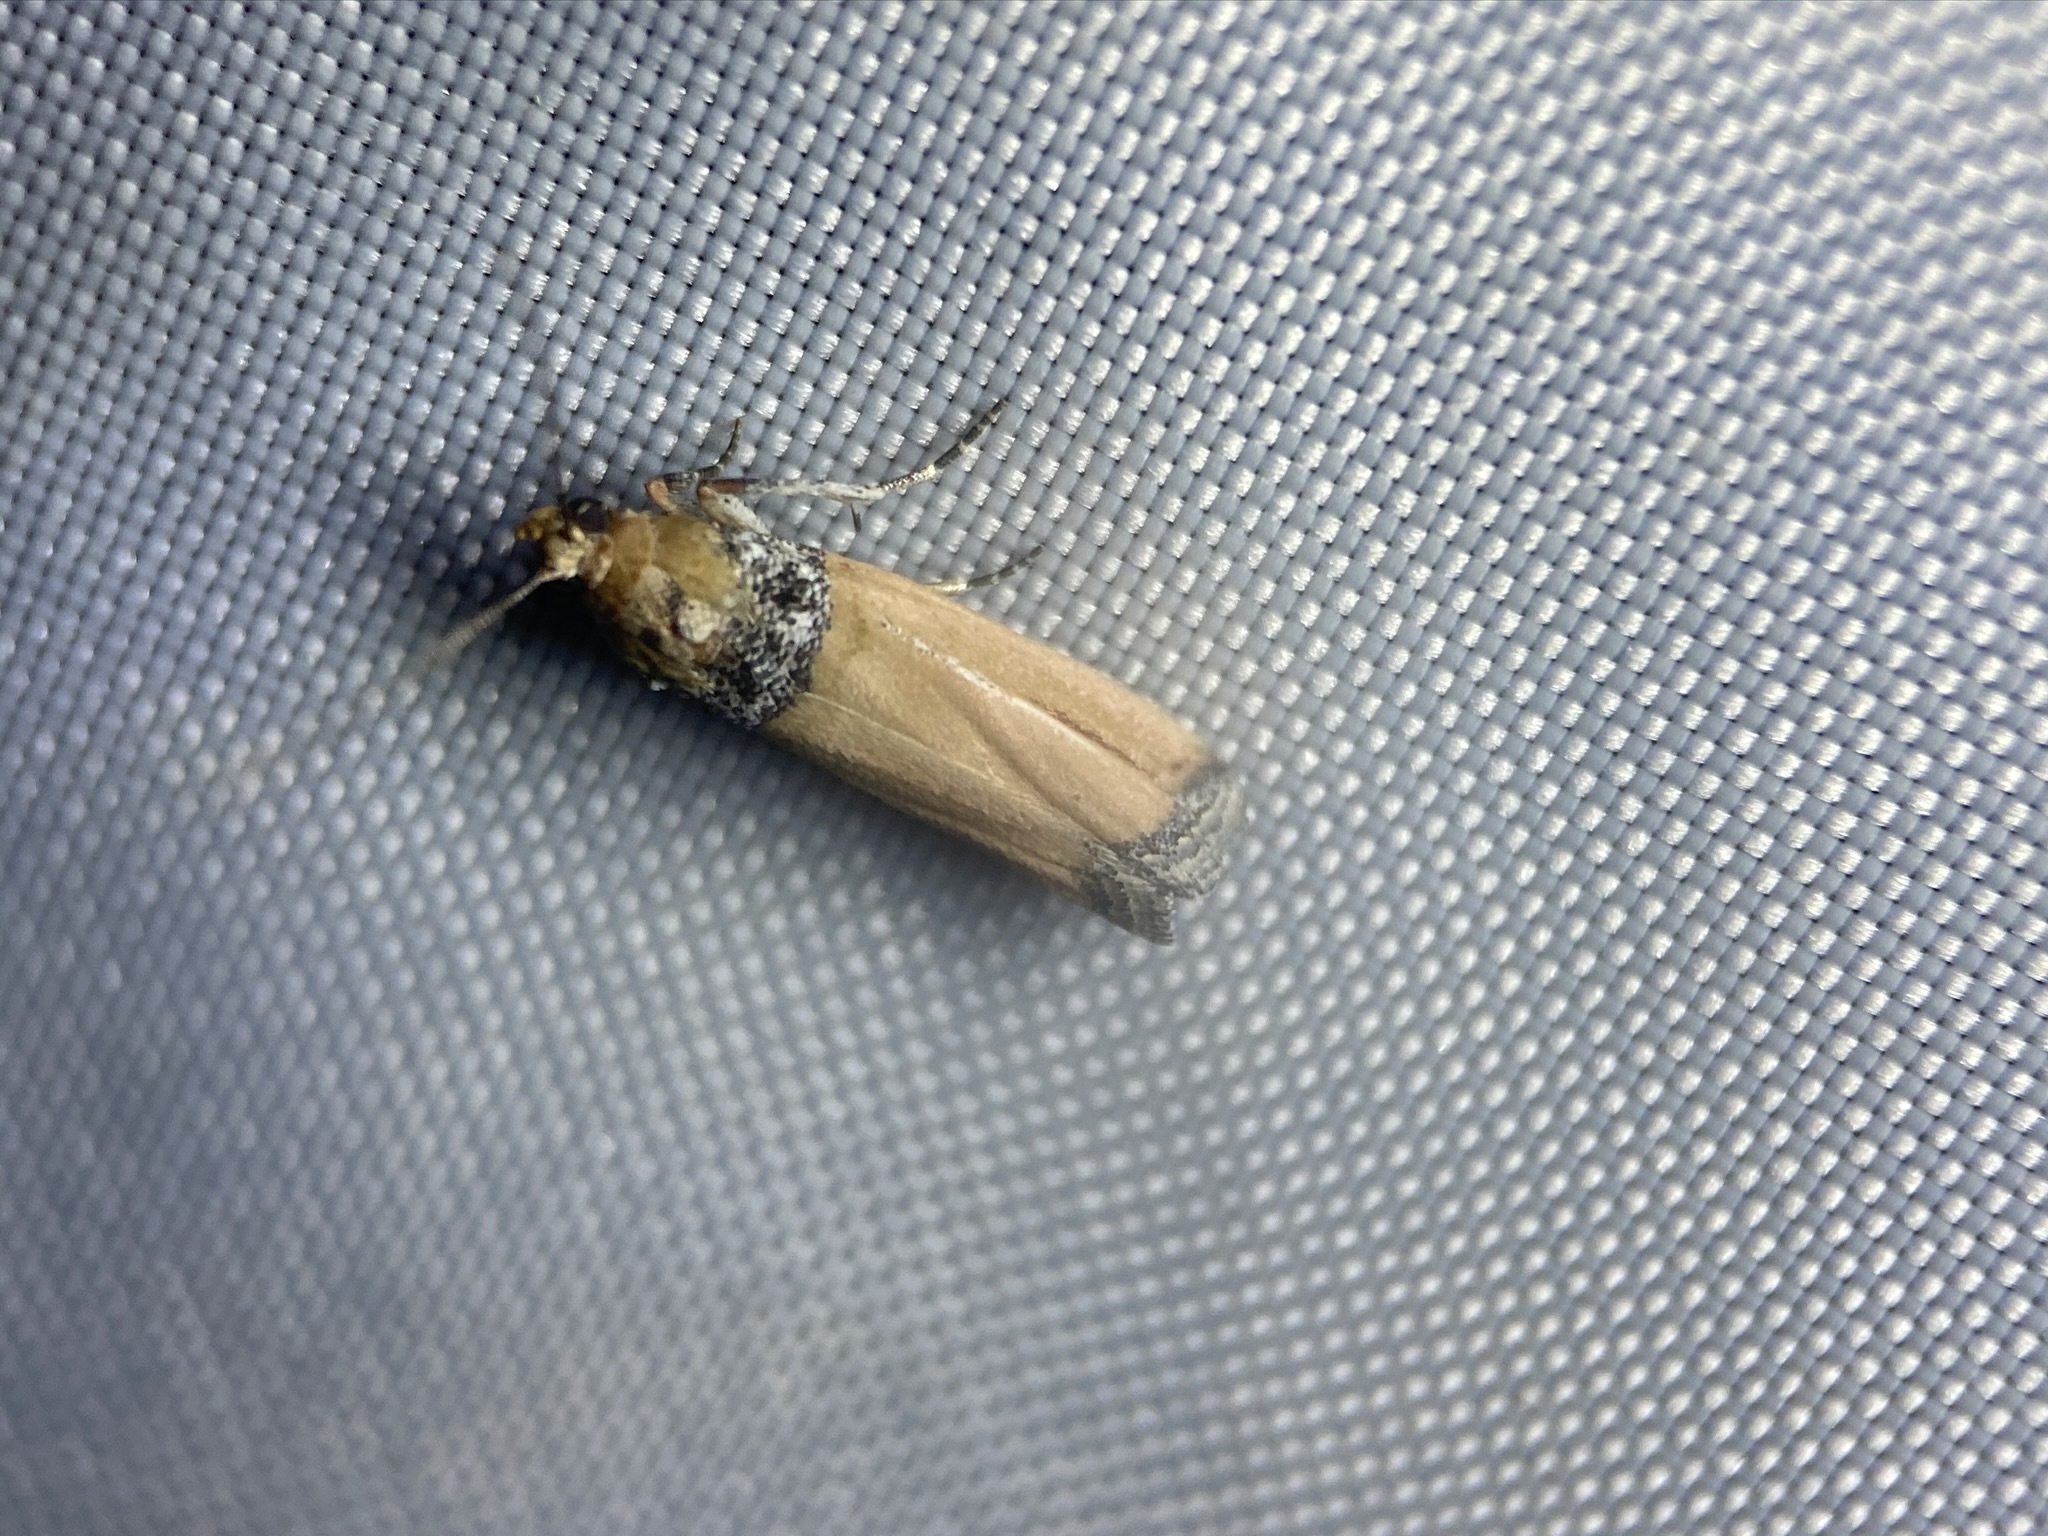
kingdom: Animalia
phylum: Arthropoda
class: Insecta
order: Lepidoptera
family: Pyralidae
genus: Dasypyga
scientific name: Dasypyga salmocolor
